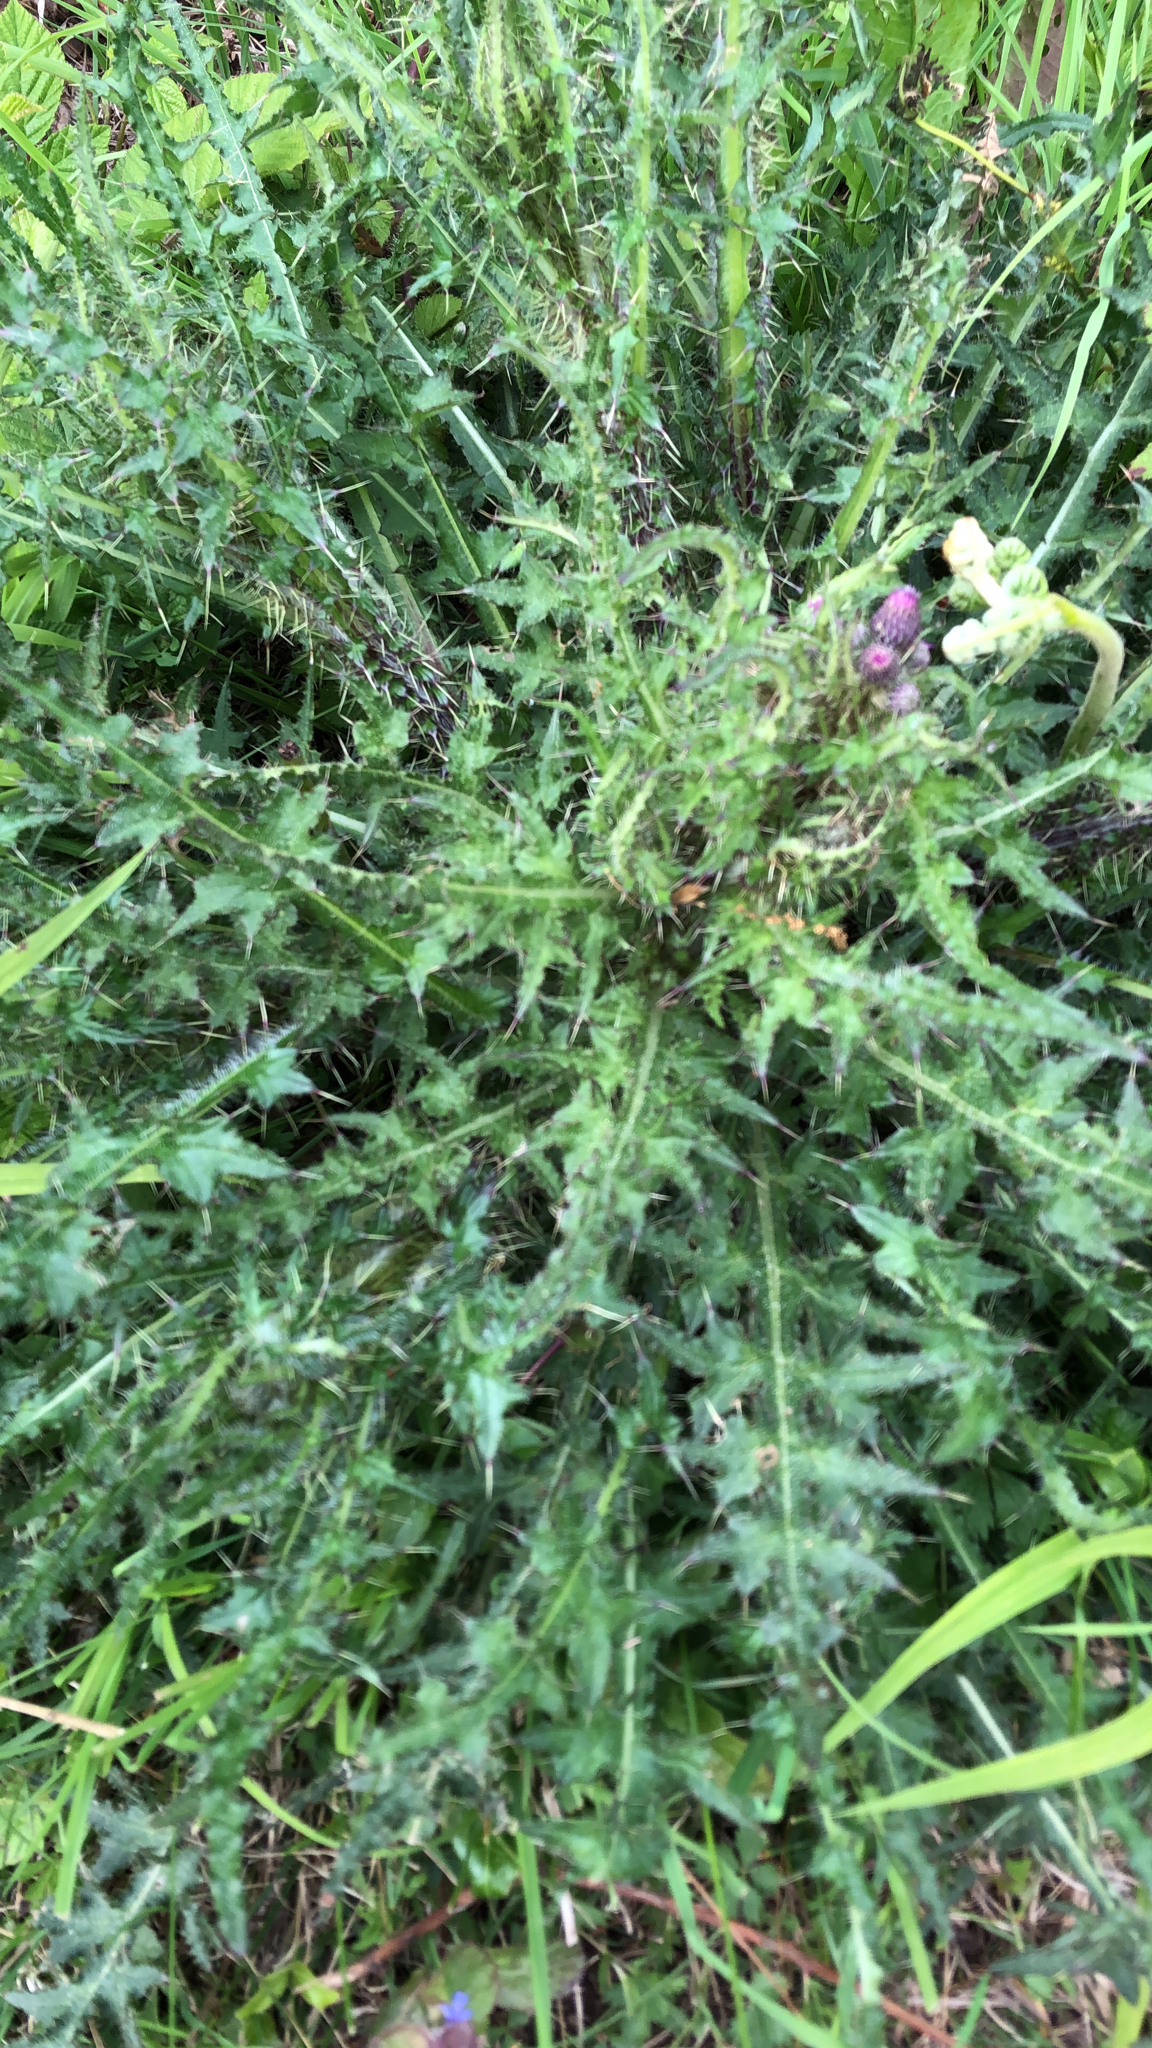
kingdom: Plantae
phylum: Tracheophyta
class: Magnoliopsida
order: Asterales
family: Asteraceae
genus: Cirsium
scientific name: Cirsium palustre
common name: Marsh thistle
